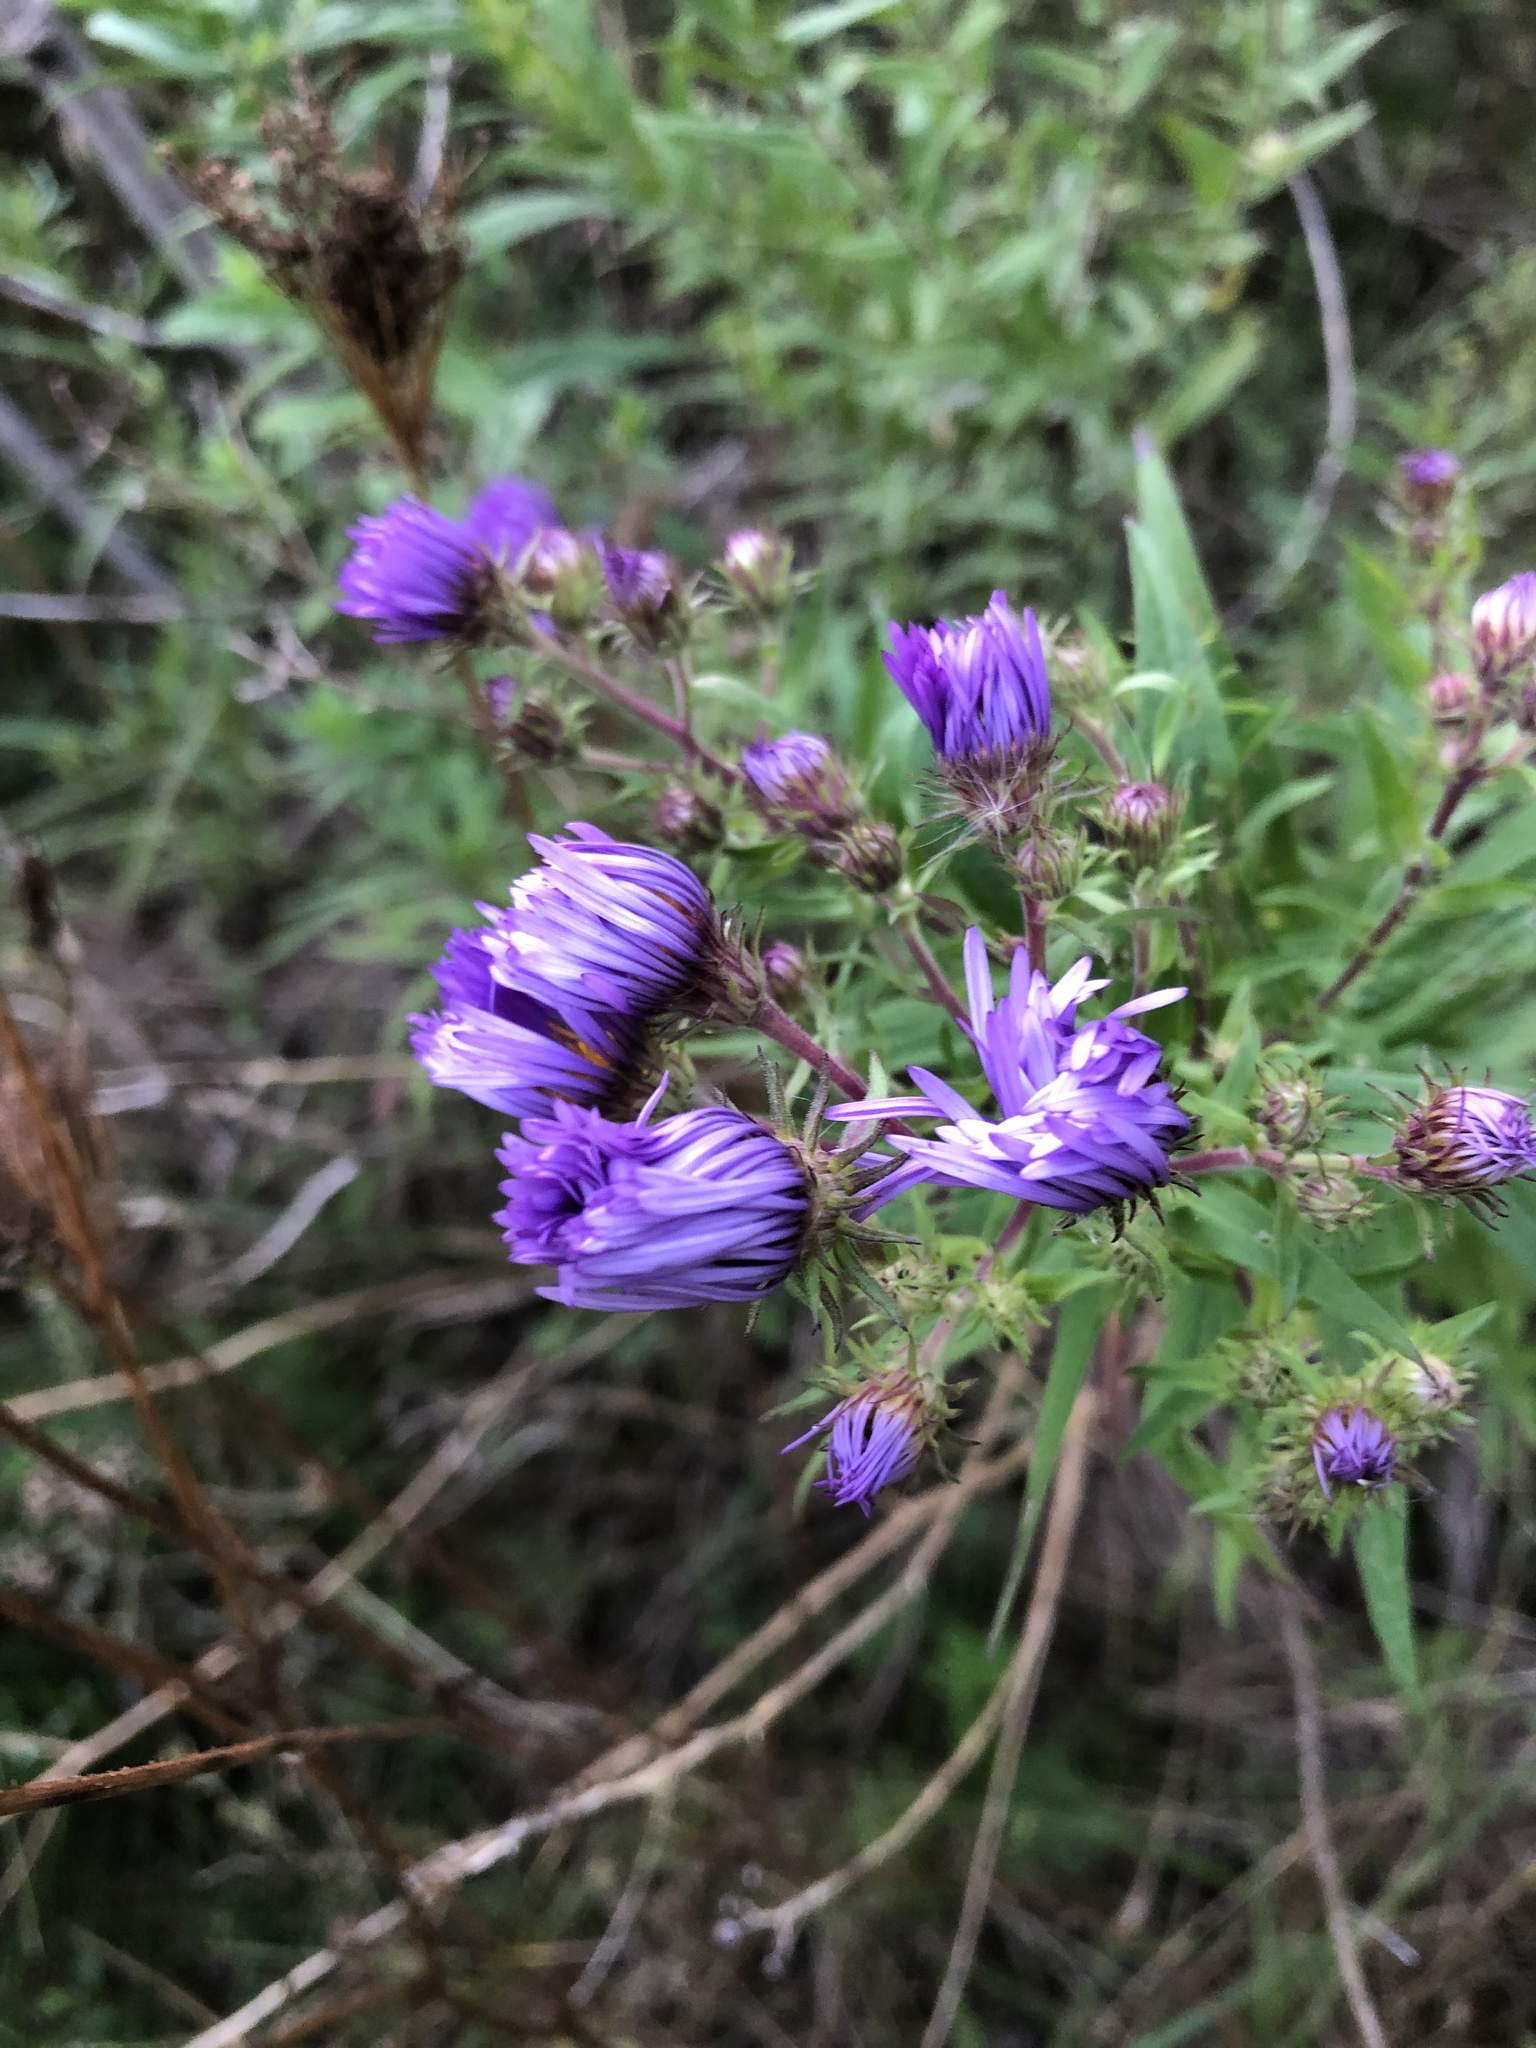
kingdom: Plantae
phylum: Tracheophyta
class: Magnoliopsida
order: Asterales
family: Asteraceae
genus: Symphyotrichum
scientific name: Symphyotrichum novae-angliae
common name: Michaelmas daisy
